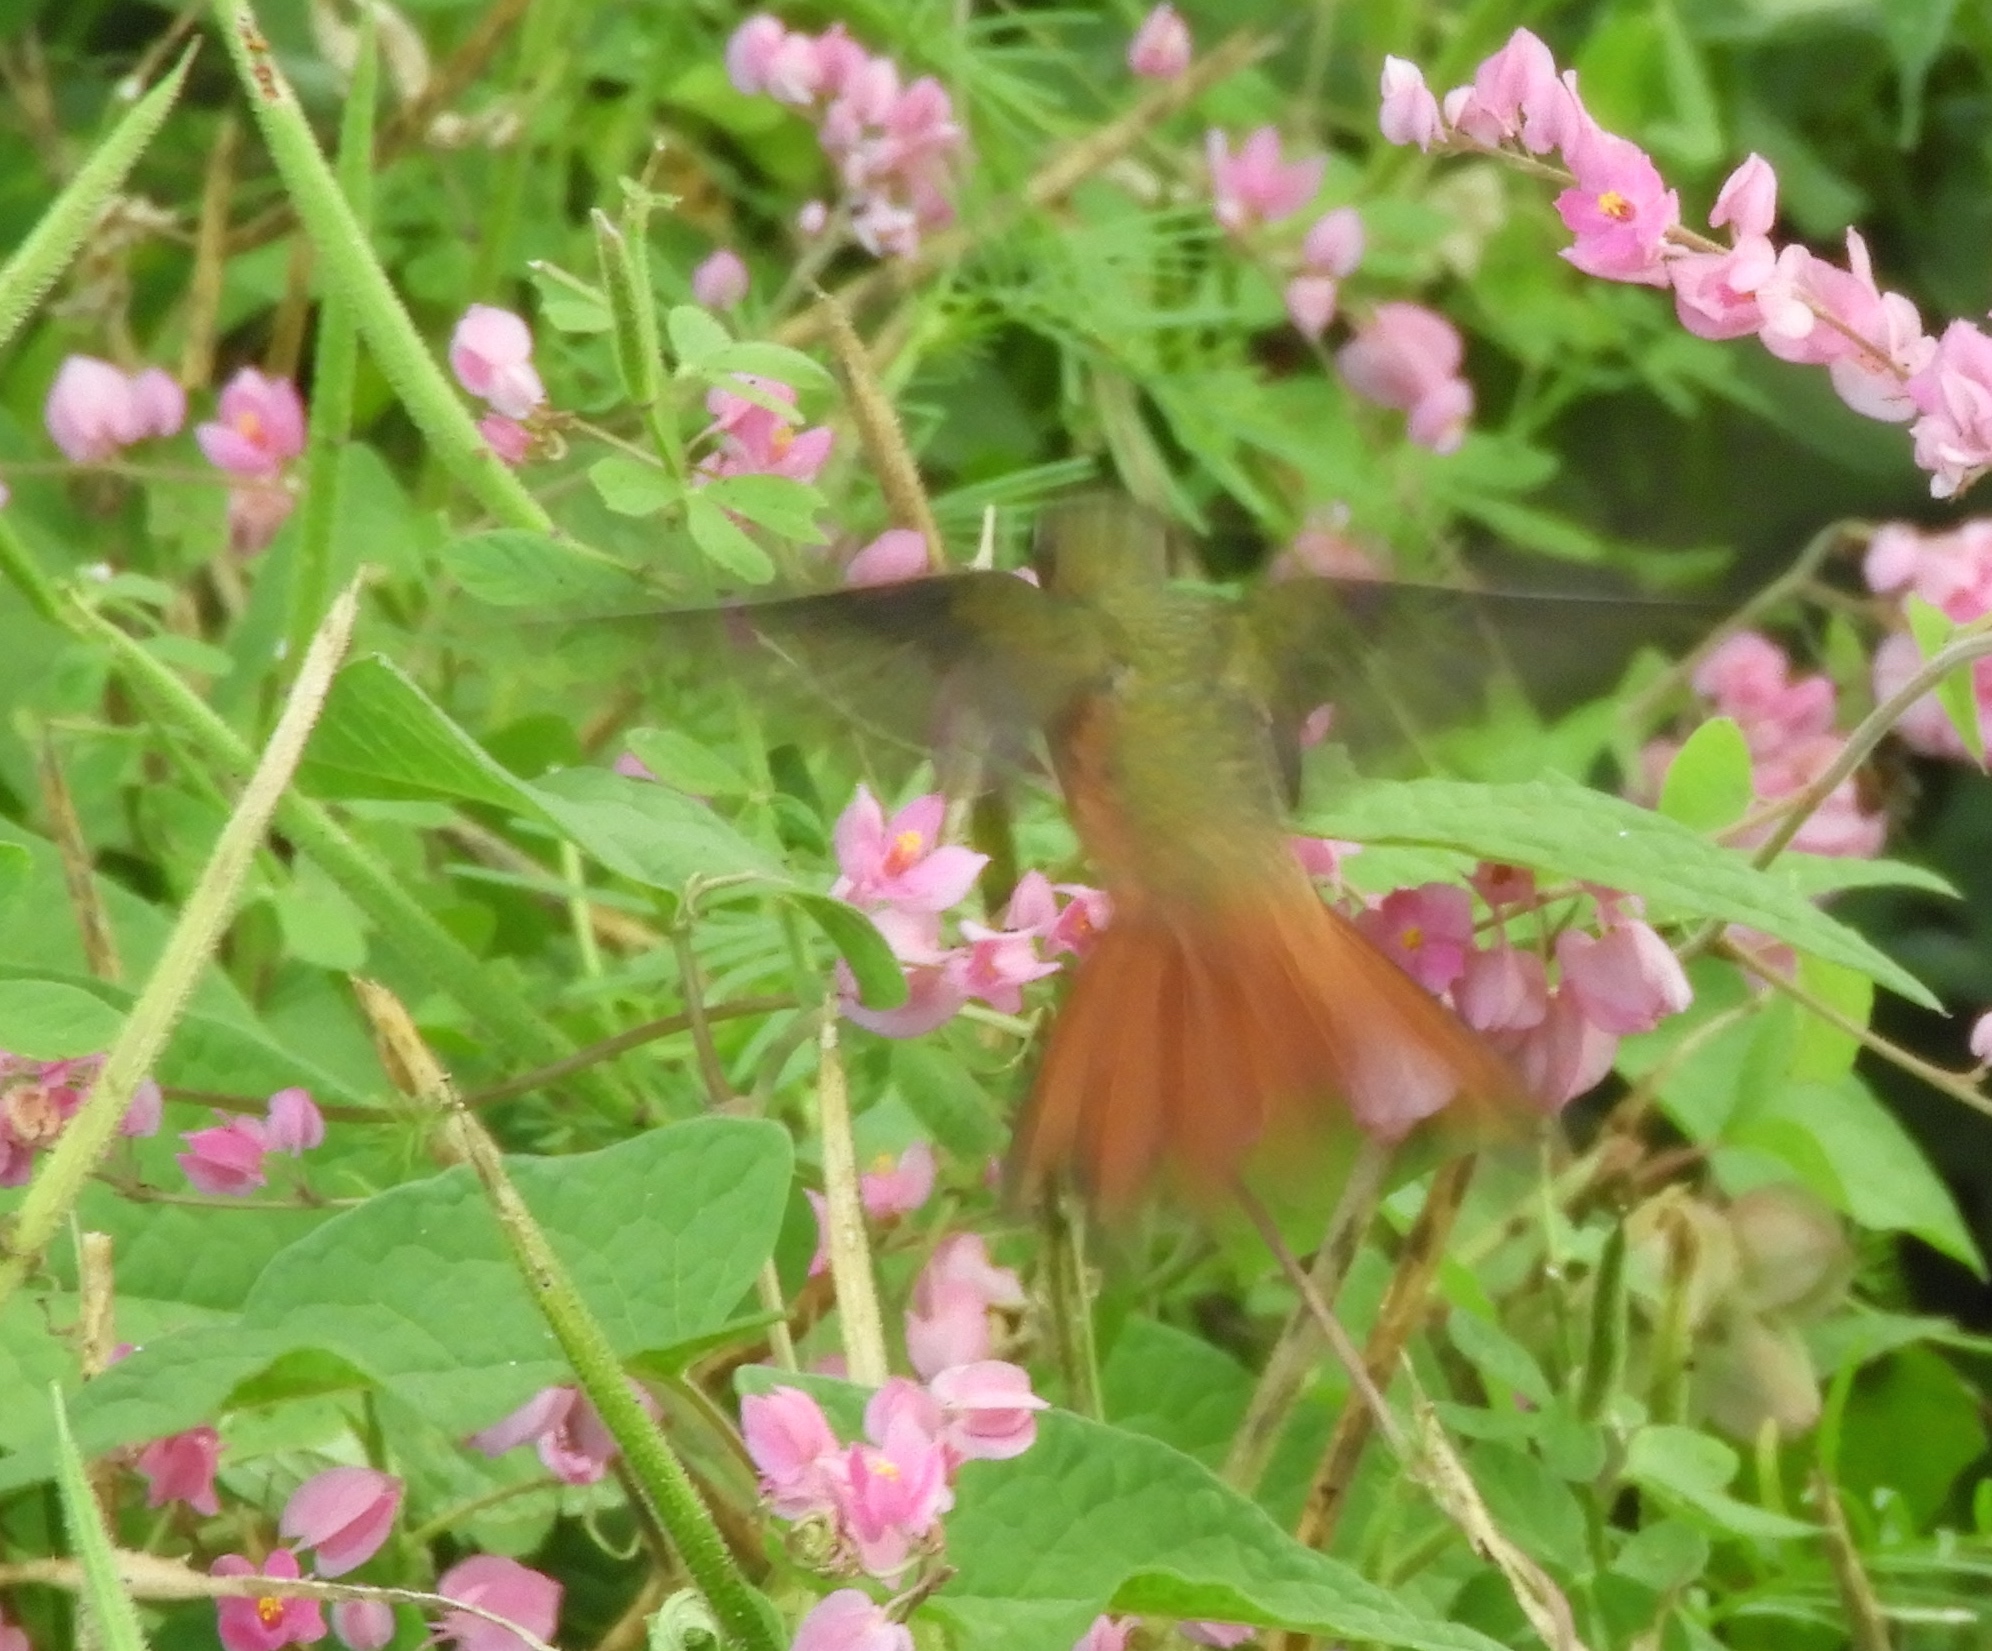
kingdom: Animalia
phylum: Chordata
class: Aves
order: Apodiformes
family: Trochilidae
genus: Amazilia
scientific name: Amazilia rutila
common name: Cinnamon hummingbird
